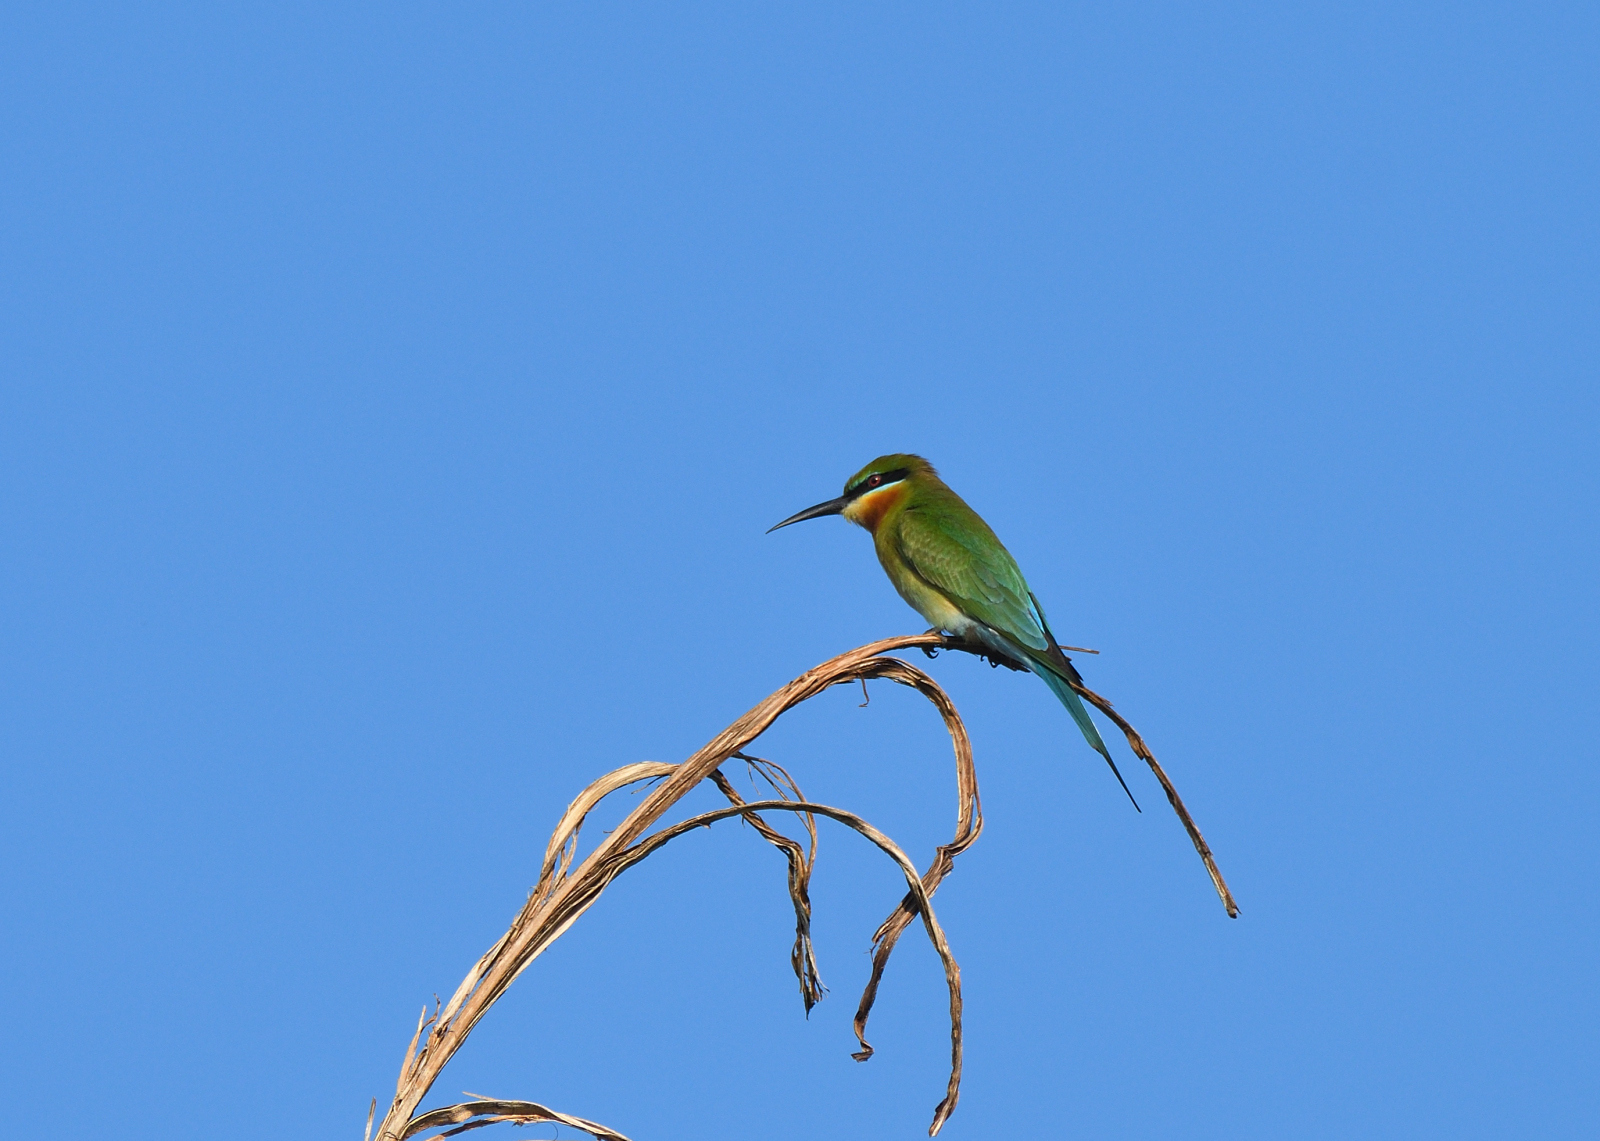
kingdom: Animalia
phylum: Chordata
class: Aves
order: Coraciiformes
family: Meropidae
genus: Merops
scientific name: Merops philippinus
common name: Blue-tailed bee-eater
